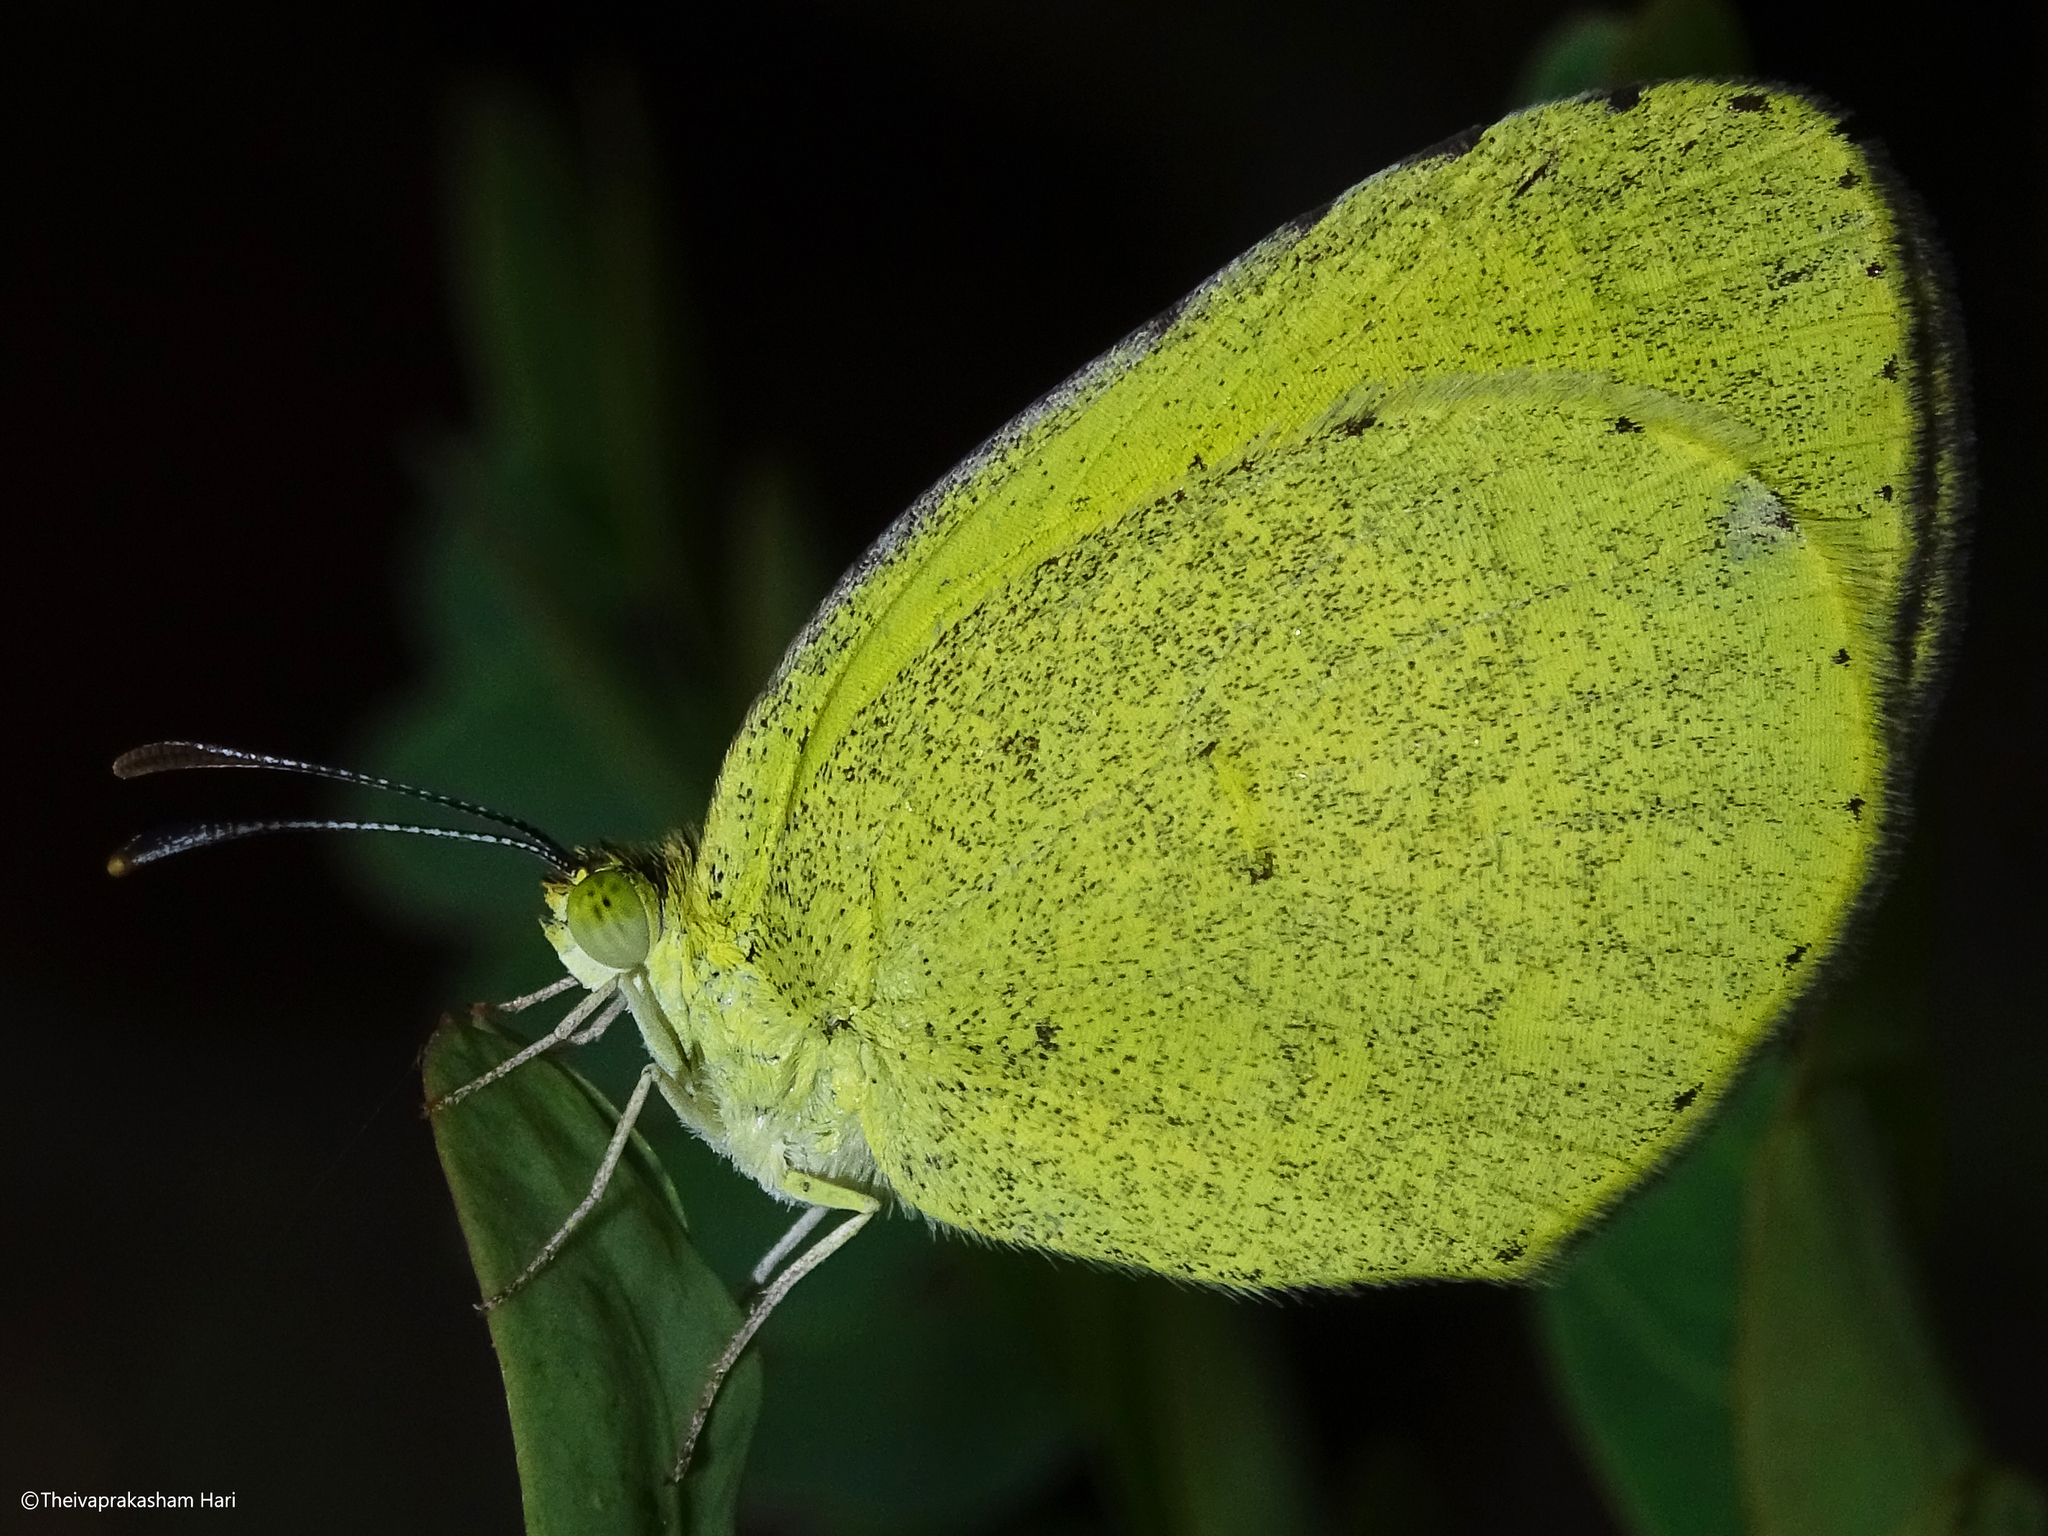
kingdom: Animalia
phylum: Arthropoda
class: Insecta
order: Lepidoptera
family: Pieridae
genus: Eurema
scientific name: Eurema brigitta
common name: Small grass yellow
